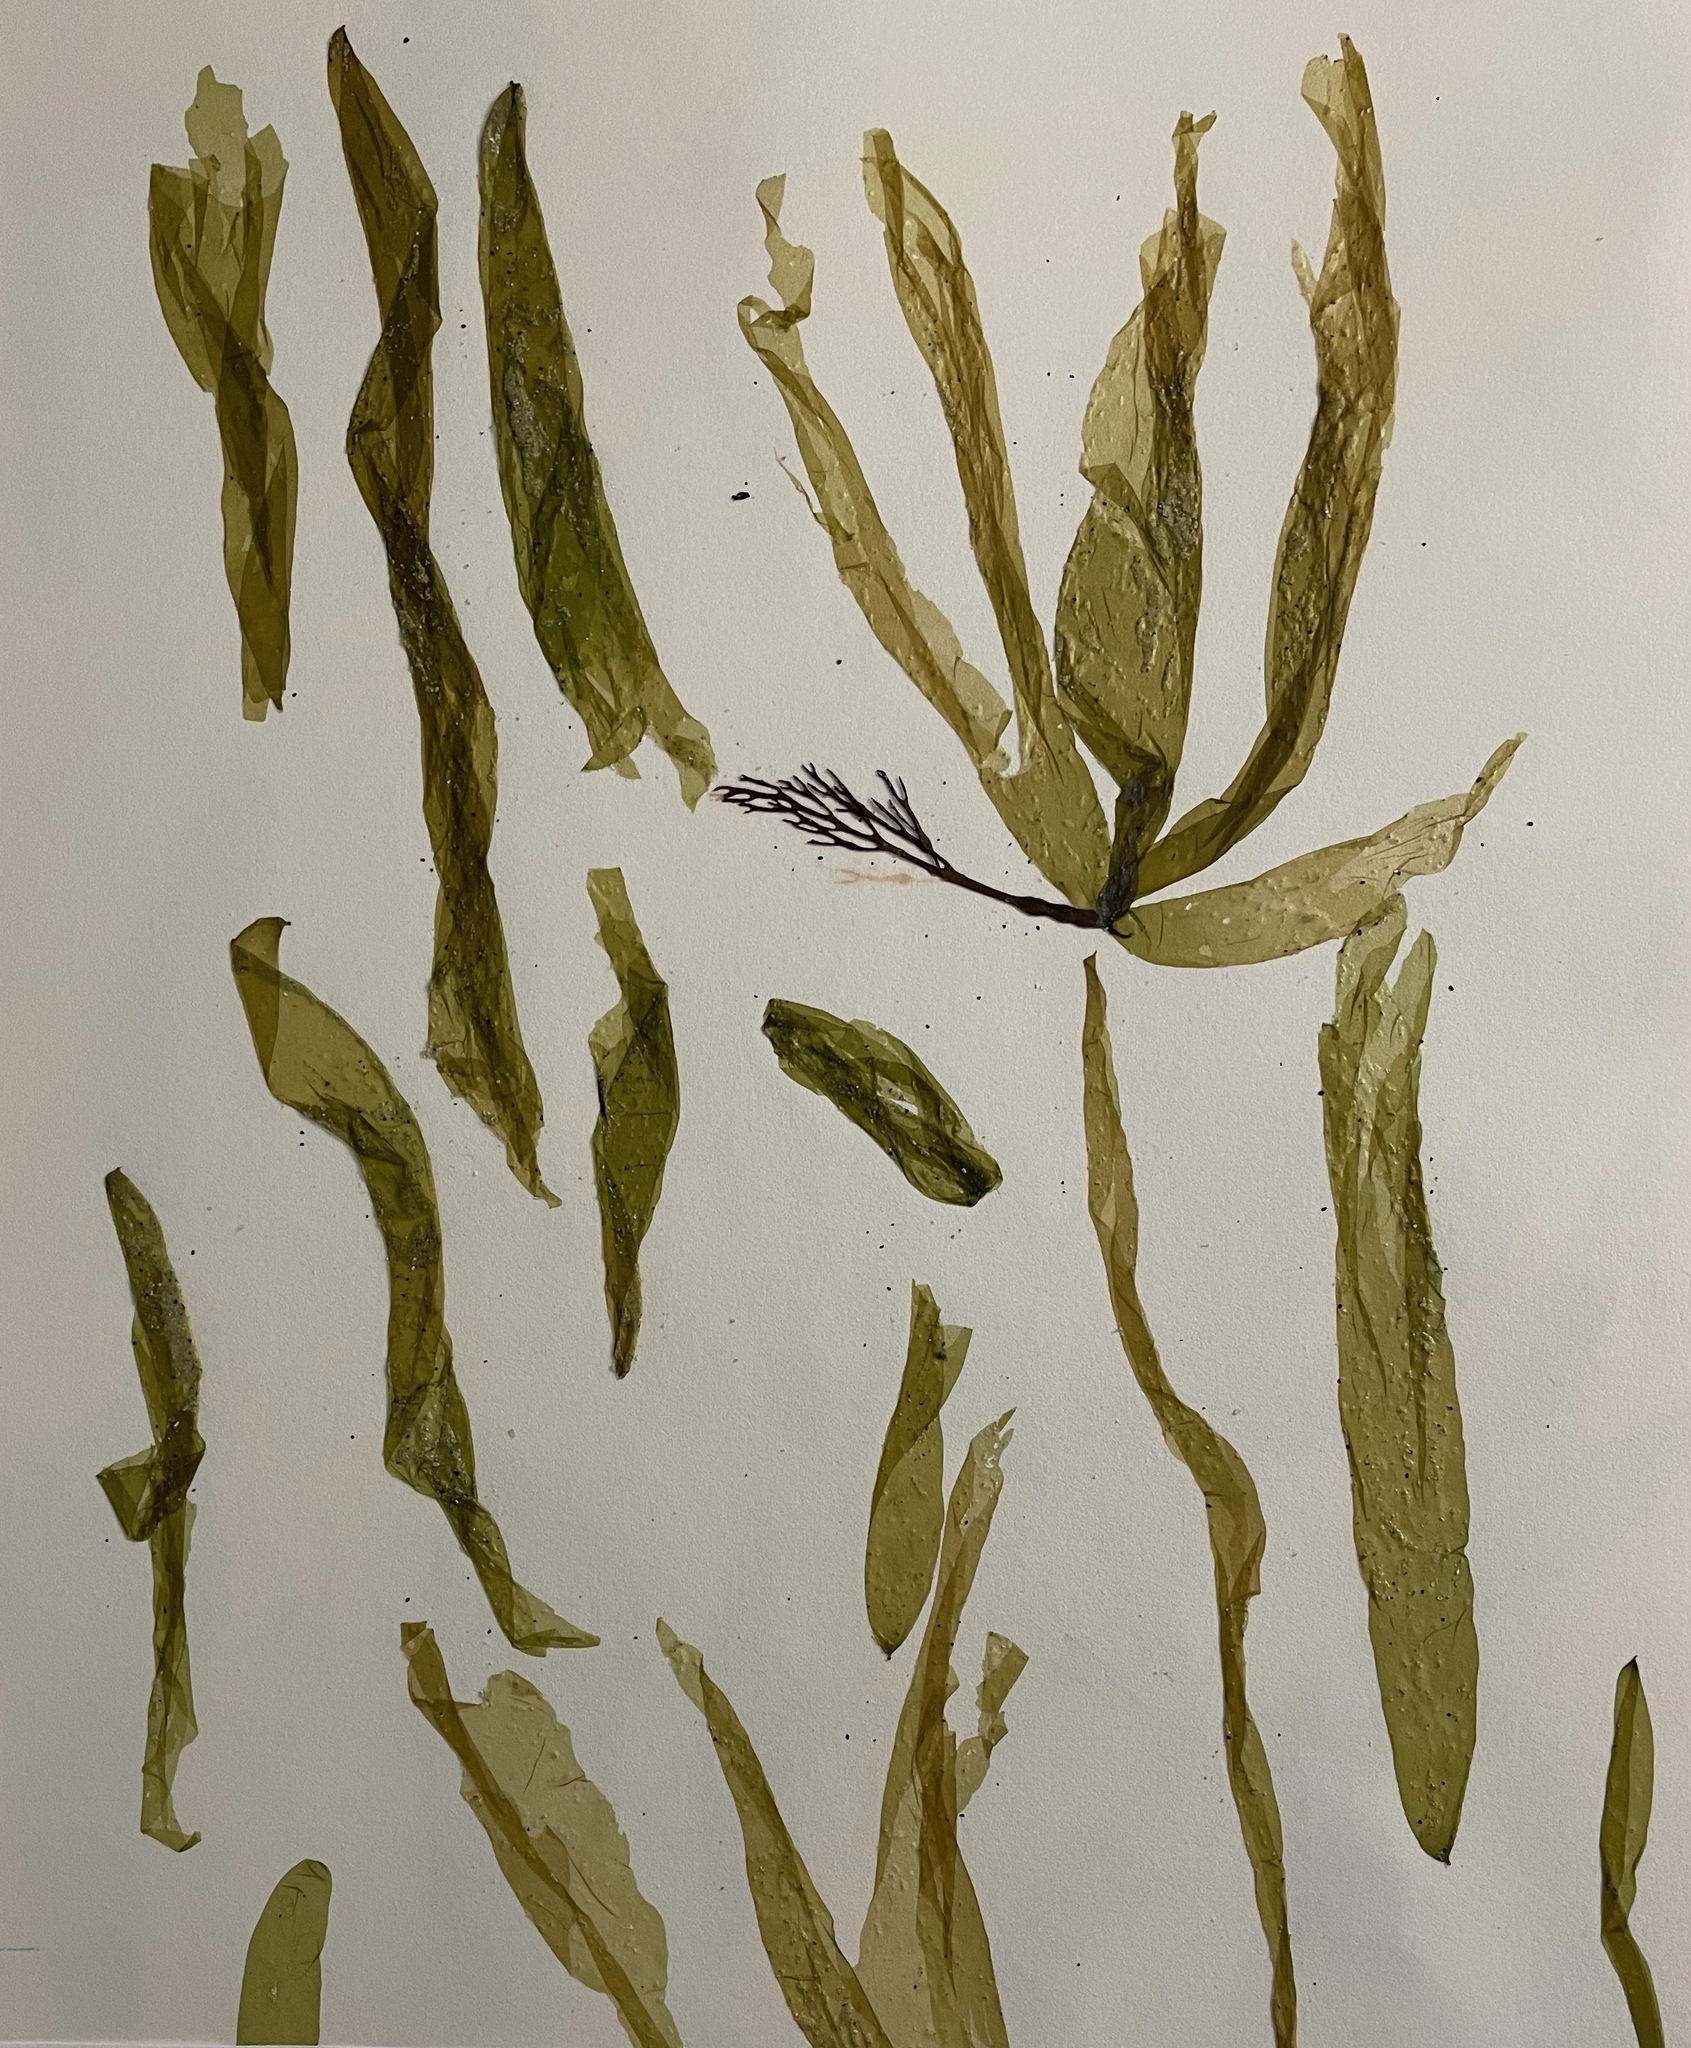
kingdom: Chromista
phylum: Ochrophyta
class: Phaeophyceae
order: Ectocarpales
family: Chordariaceae
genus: Coilodesme
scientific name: Coilodesme californica
